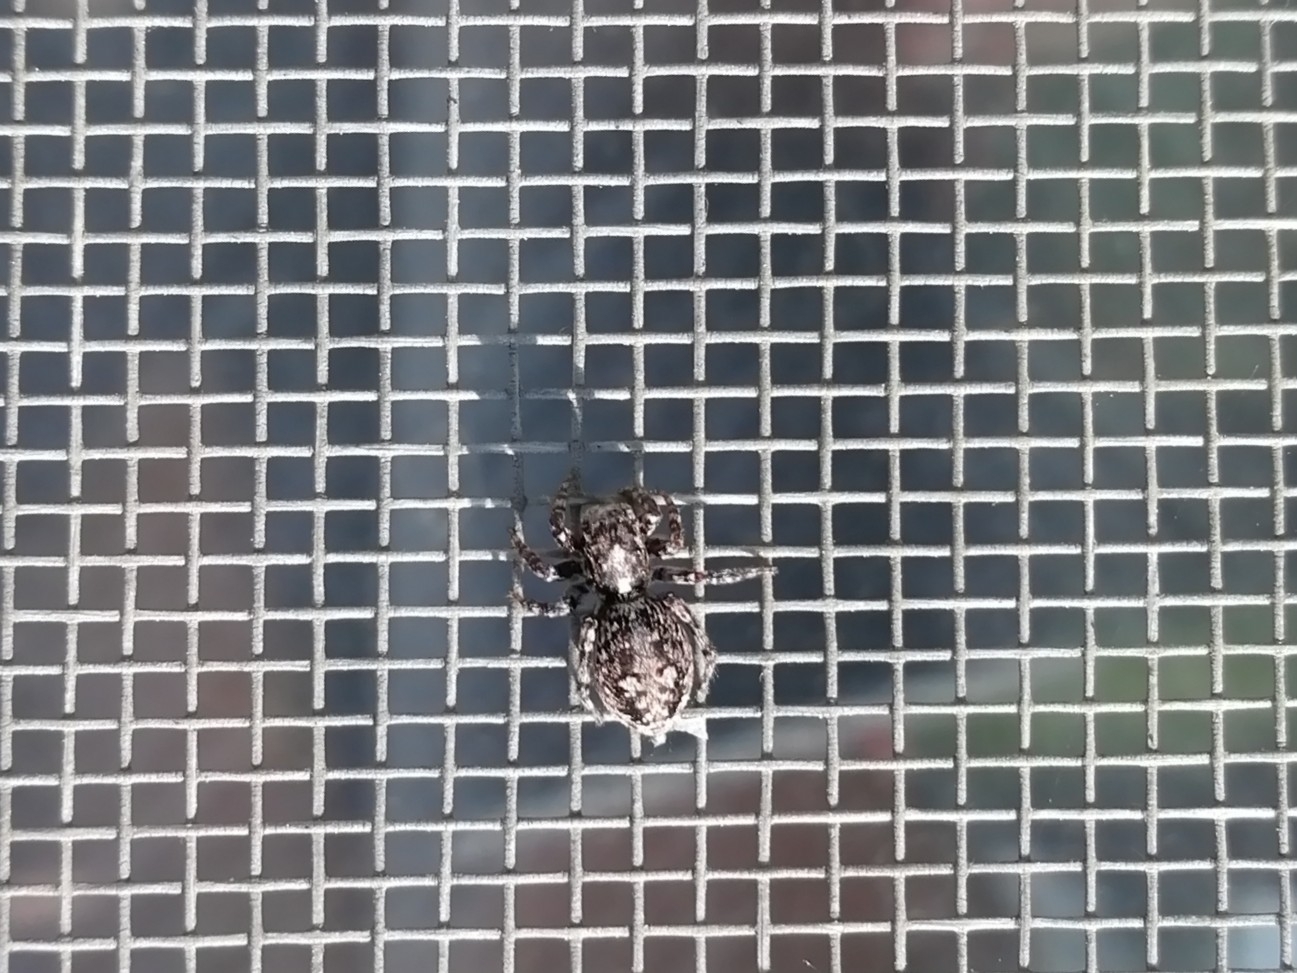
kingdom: Animalia
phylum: Arthropoda
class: Arachnida
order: Araneae
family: Salticidae
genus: Attulus
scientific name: Attulus terebratus
